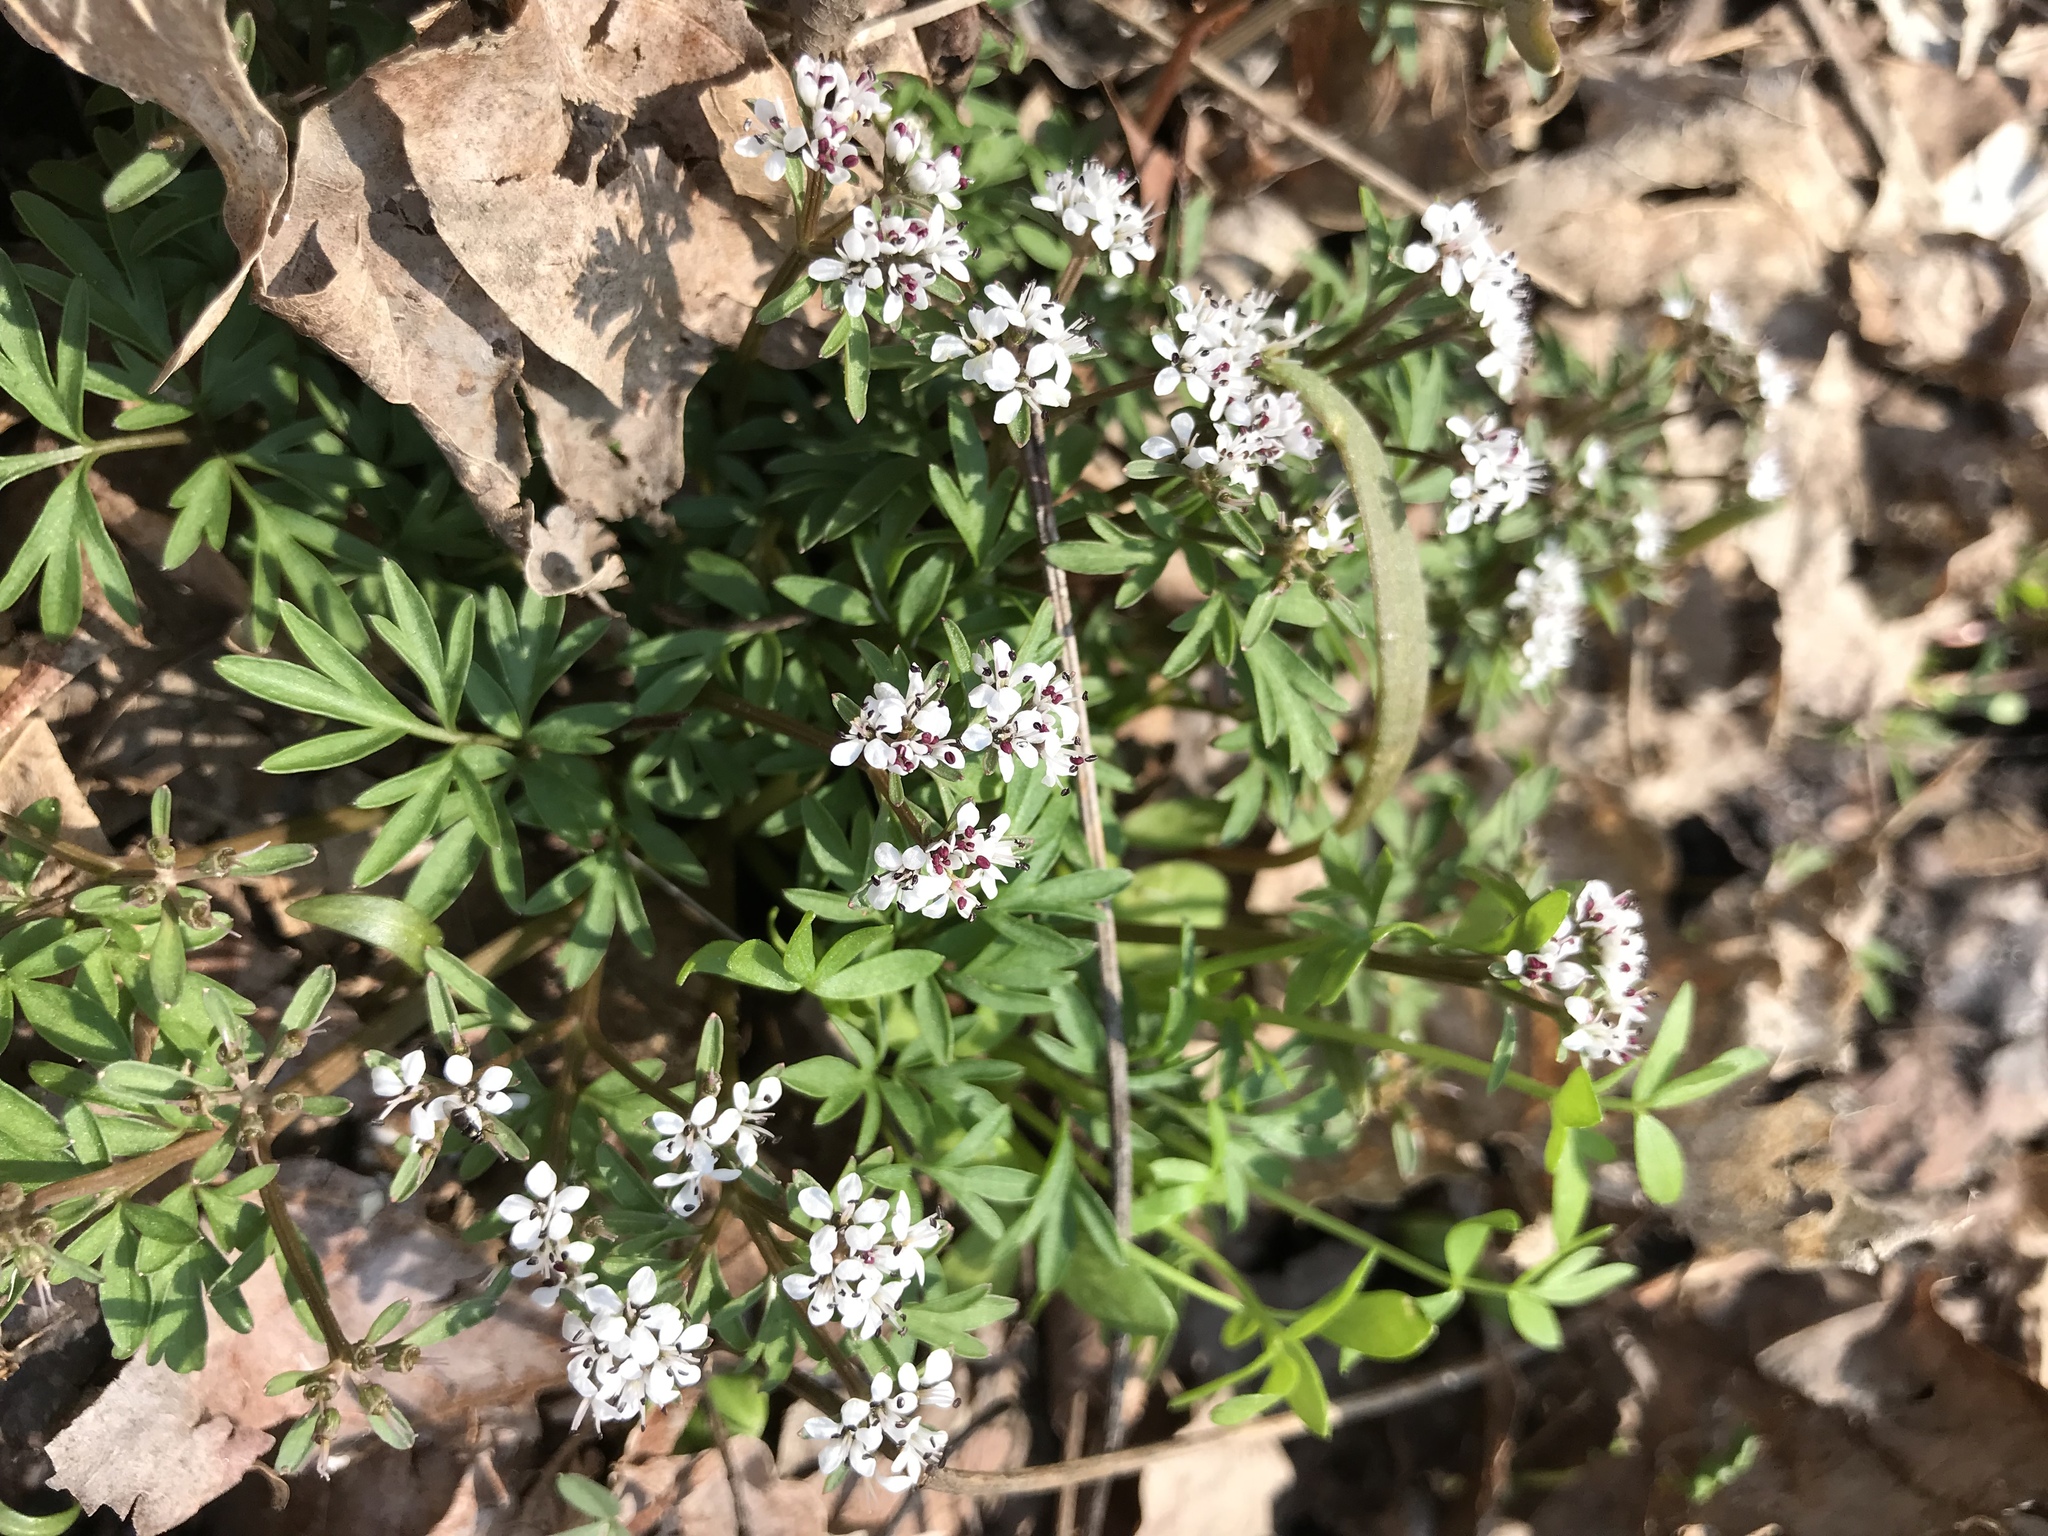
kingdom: Plantae
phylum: Tracheophyta
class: Magnoliopsida
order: Apiales
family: Apiaceae
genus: Erigenia
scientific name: Erigenia bulbosa
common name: Pepper-and-salt
